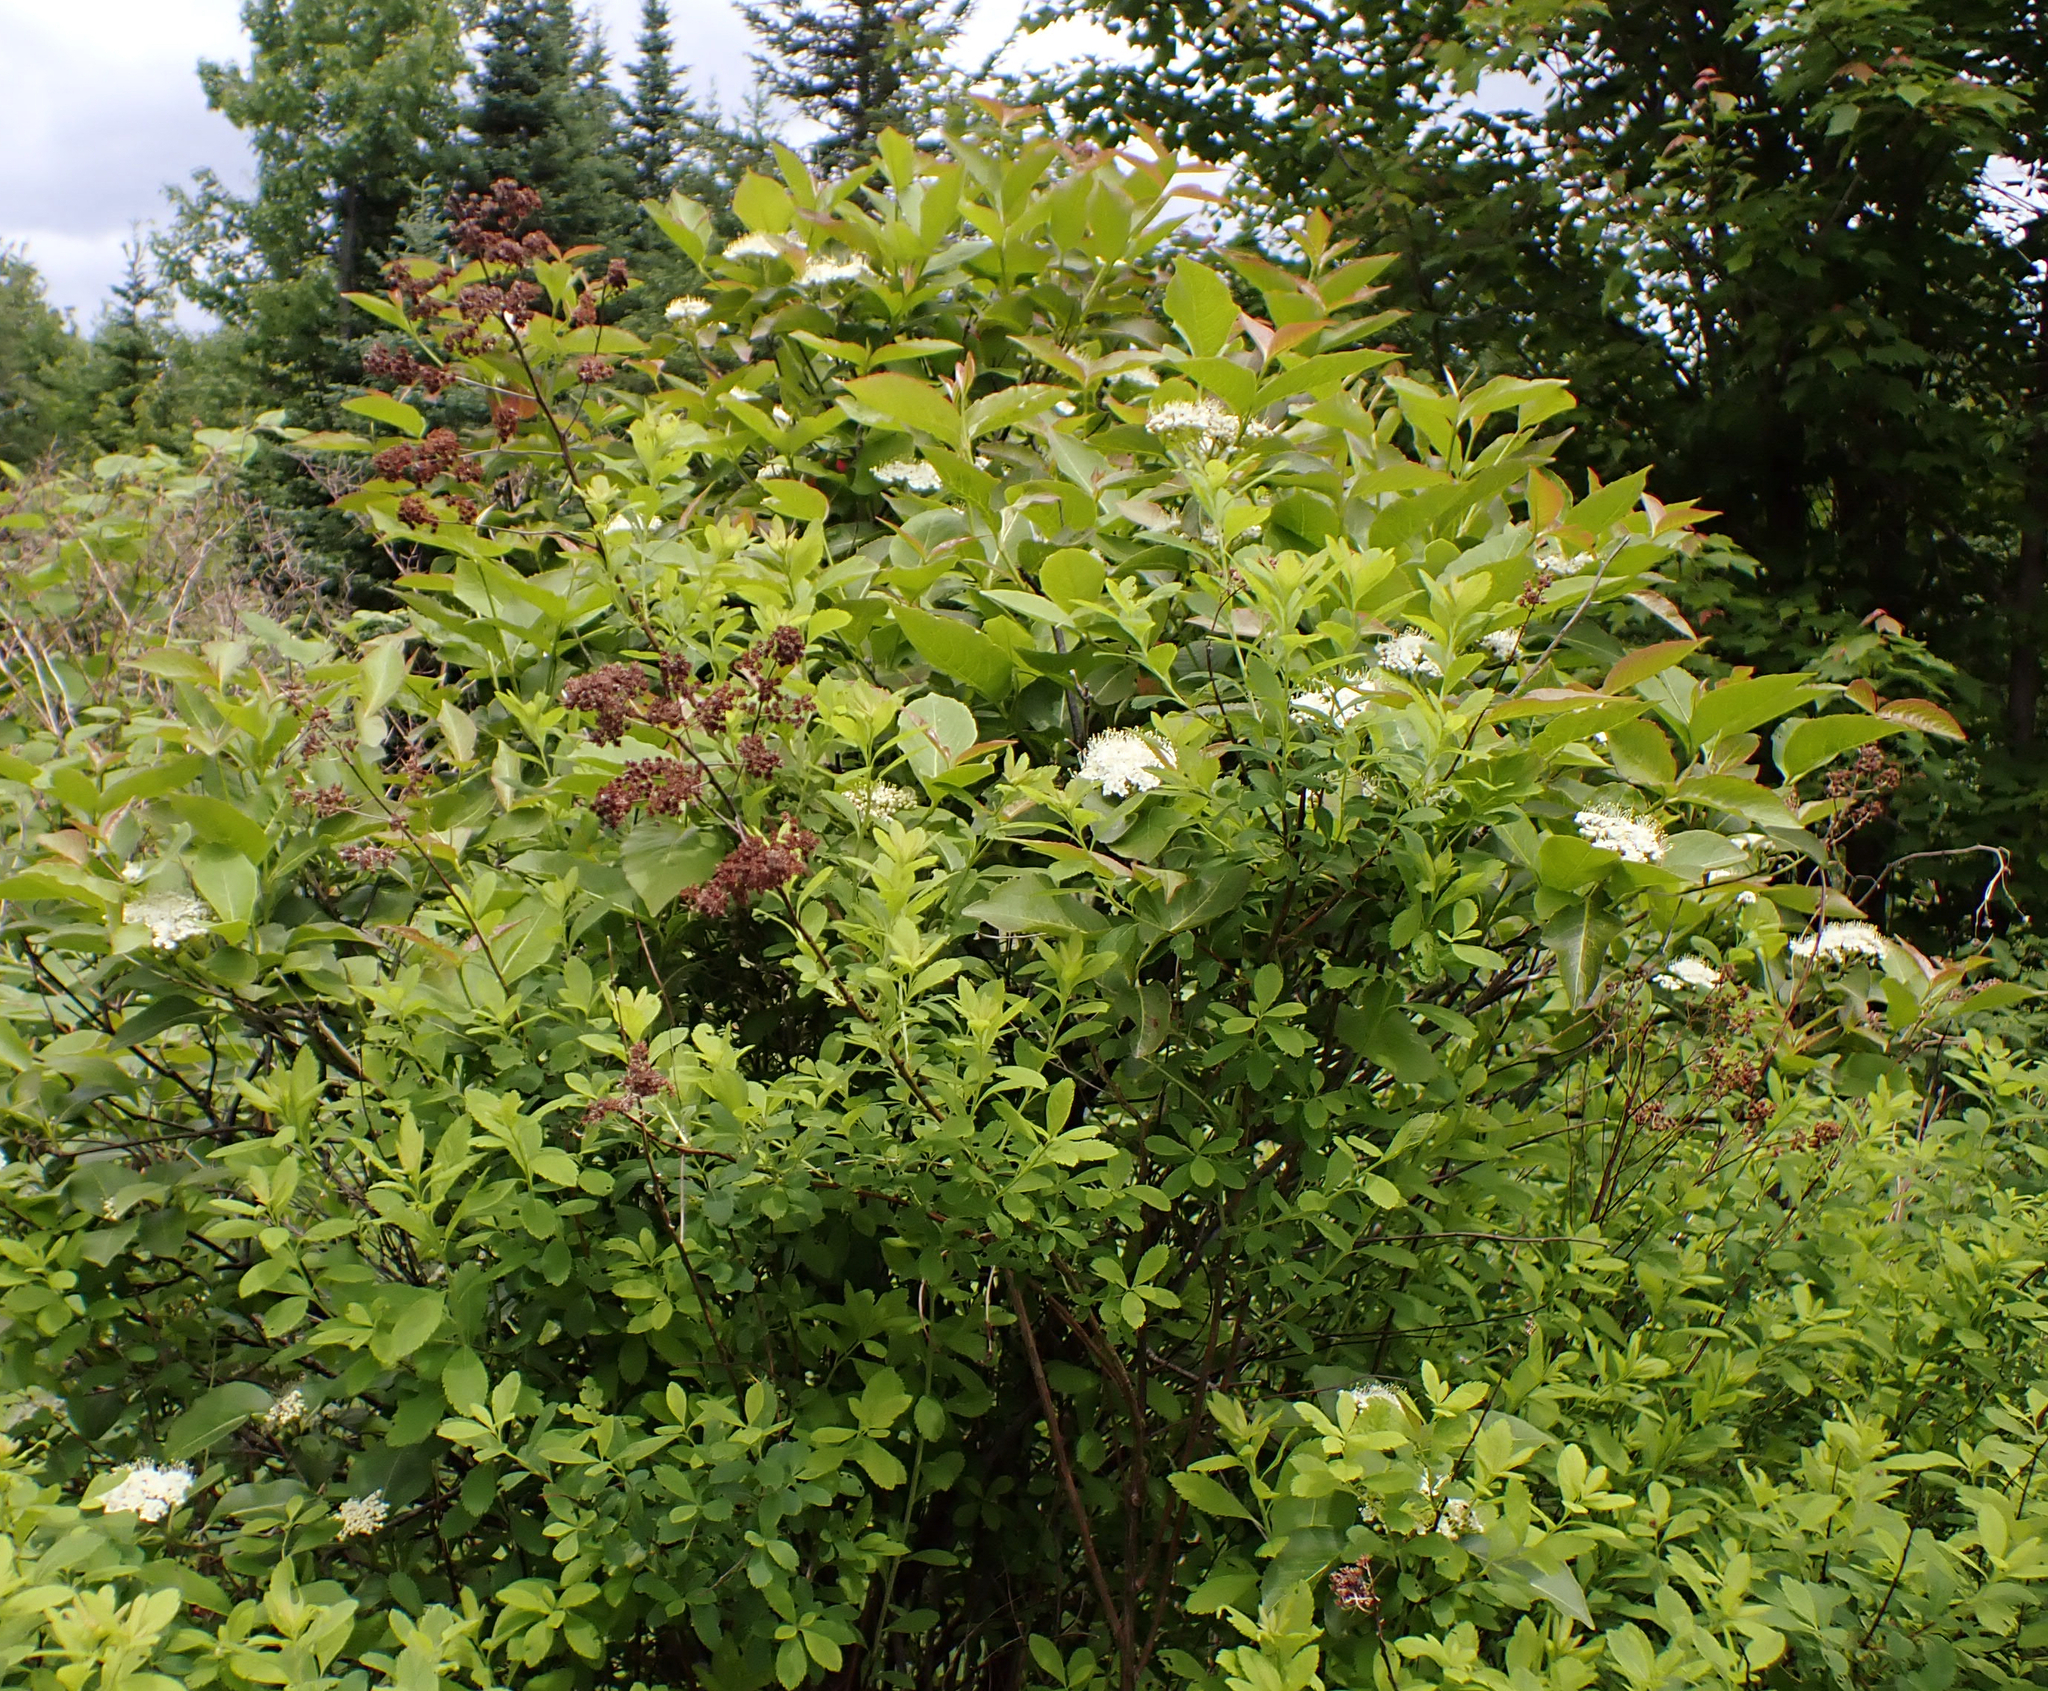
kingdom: Plantae
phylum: Tracheophyta
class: Magnoliopsida
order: Dipsacales
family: Viburnaceae
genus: Viburnum
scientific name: Viburnum cassinoides
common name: Swamp haw
